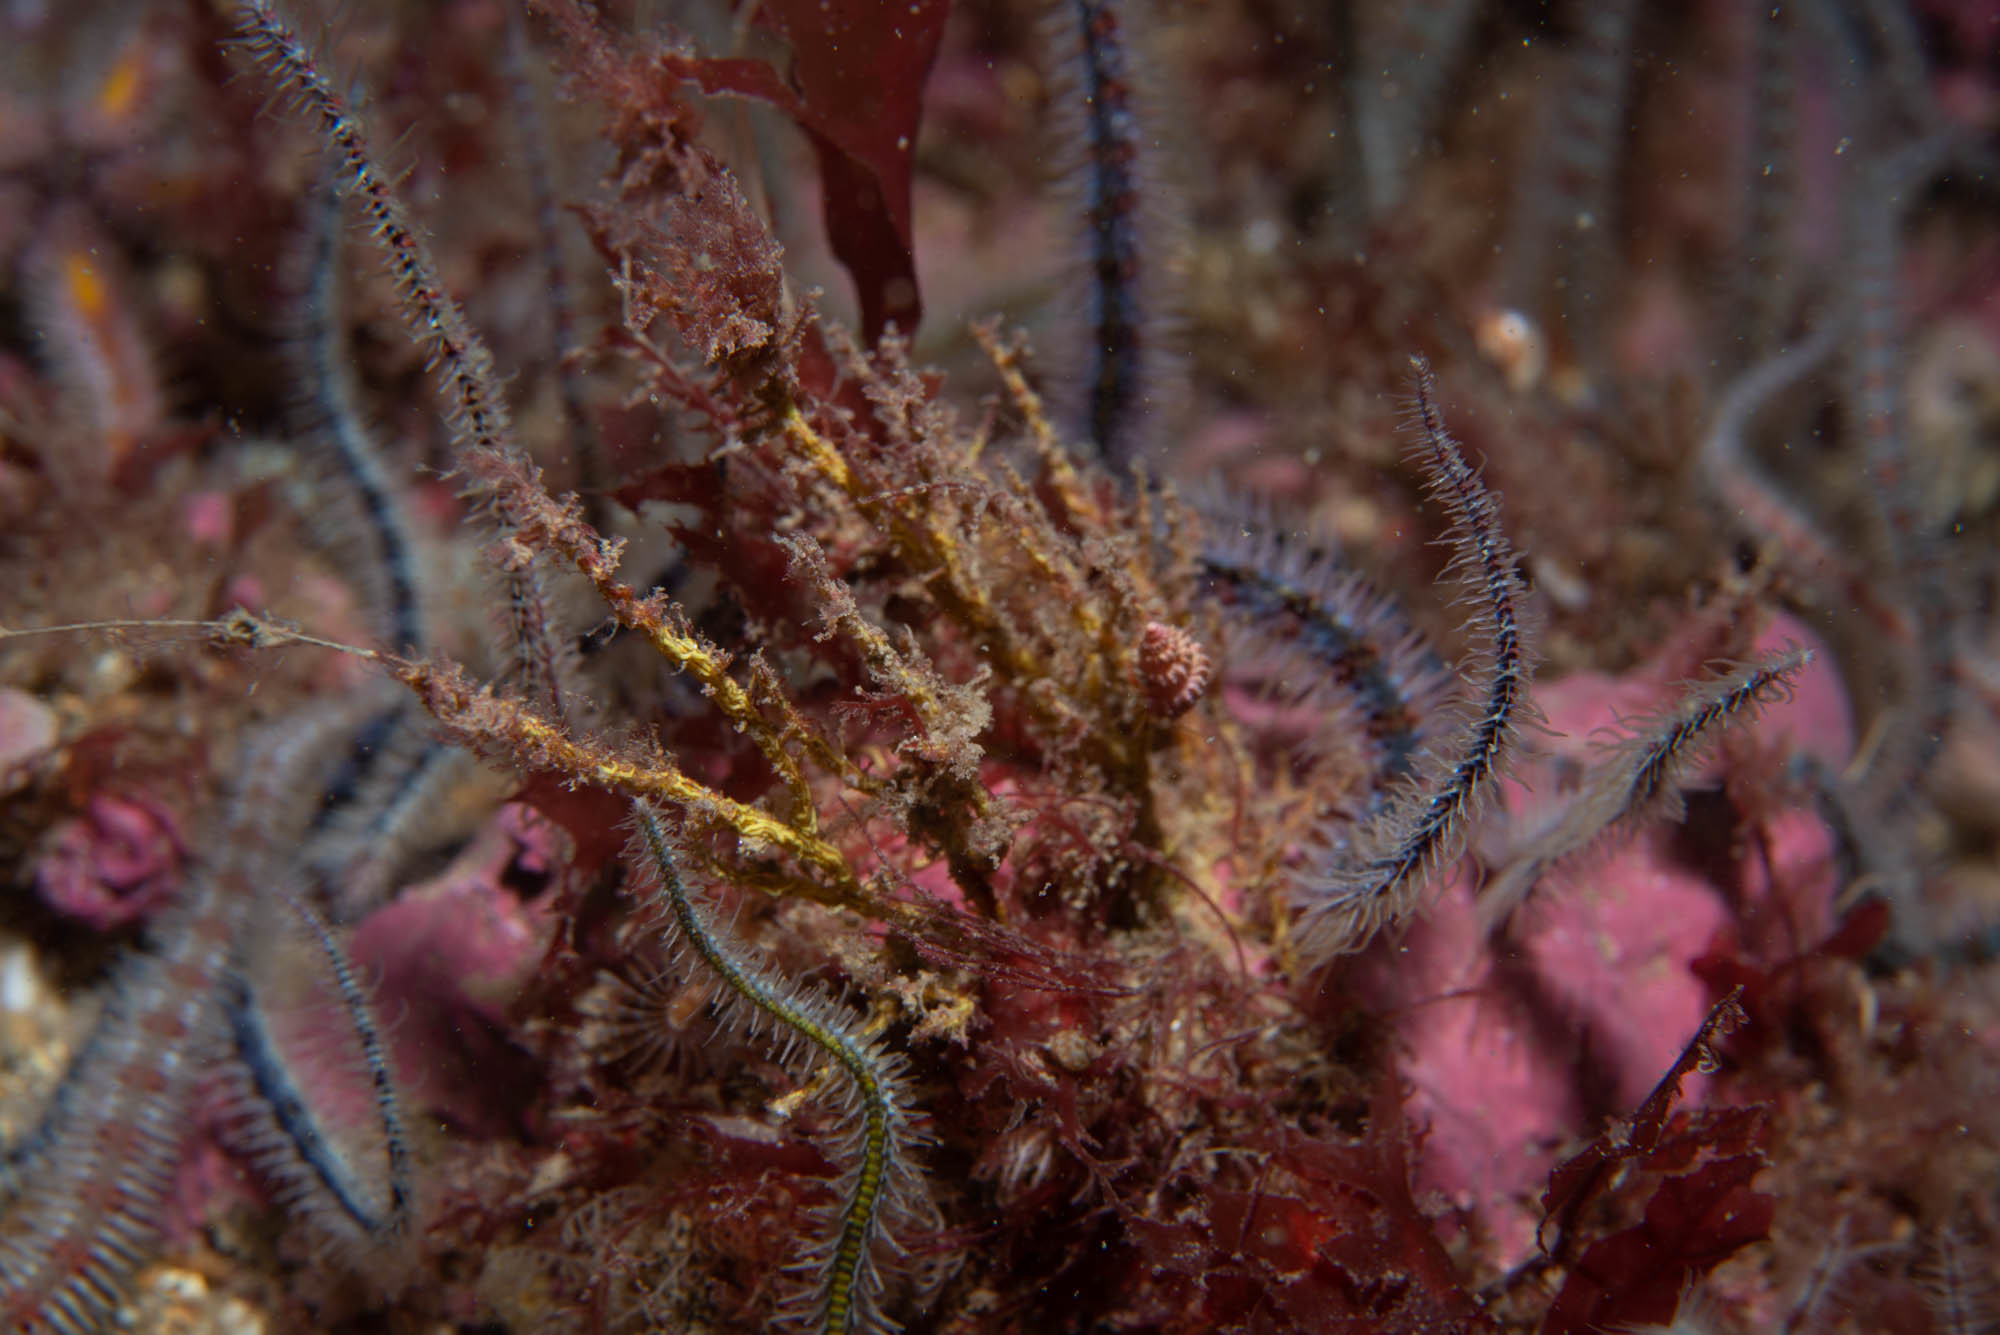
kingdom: Animalia
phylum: Cnidaria
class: Hydrozoa
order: Leptothecata
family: Haleciidae
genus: Halecium
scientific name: Halecium muricatum
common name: Sea hedgehog hydroid
